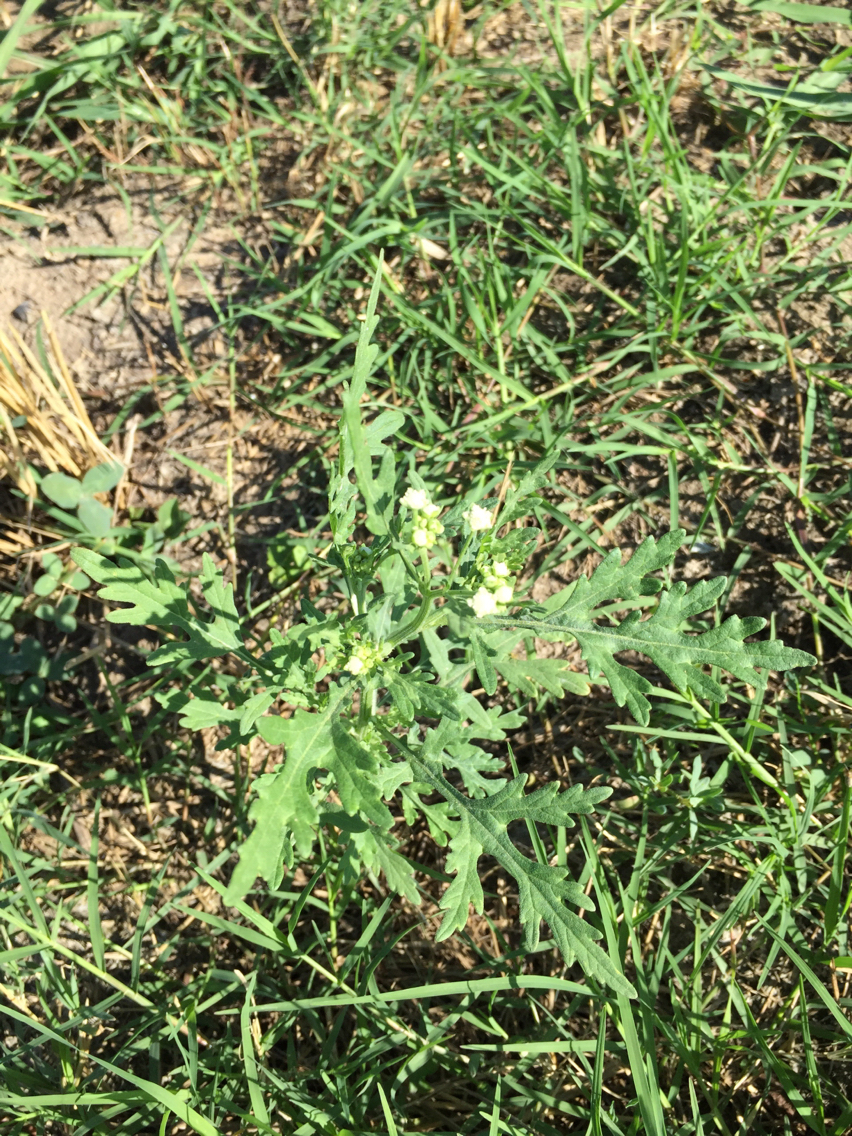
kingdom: Plantae
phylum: Tracheophyta
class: Magnoliopsida
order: Asterales
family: Asteraceae
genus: Parthenium
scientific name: Parthenium hysterophorus
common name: Santa maria feverfew
